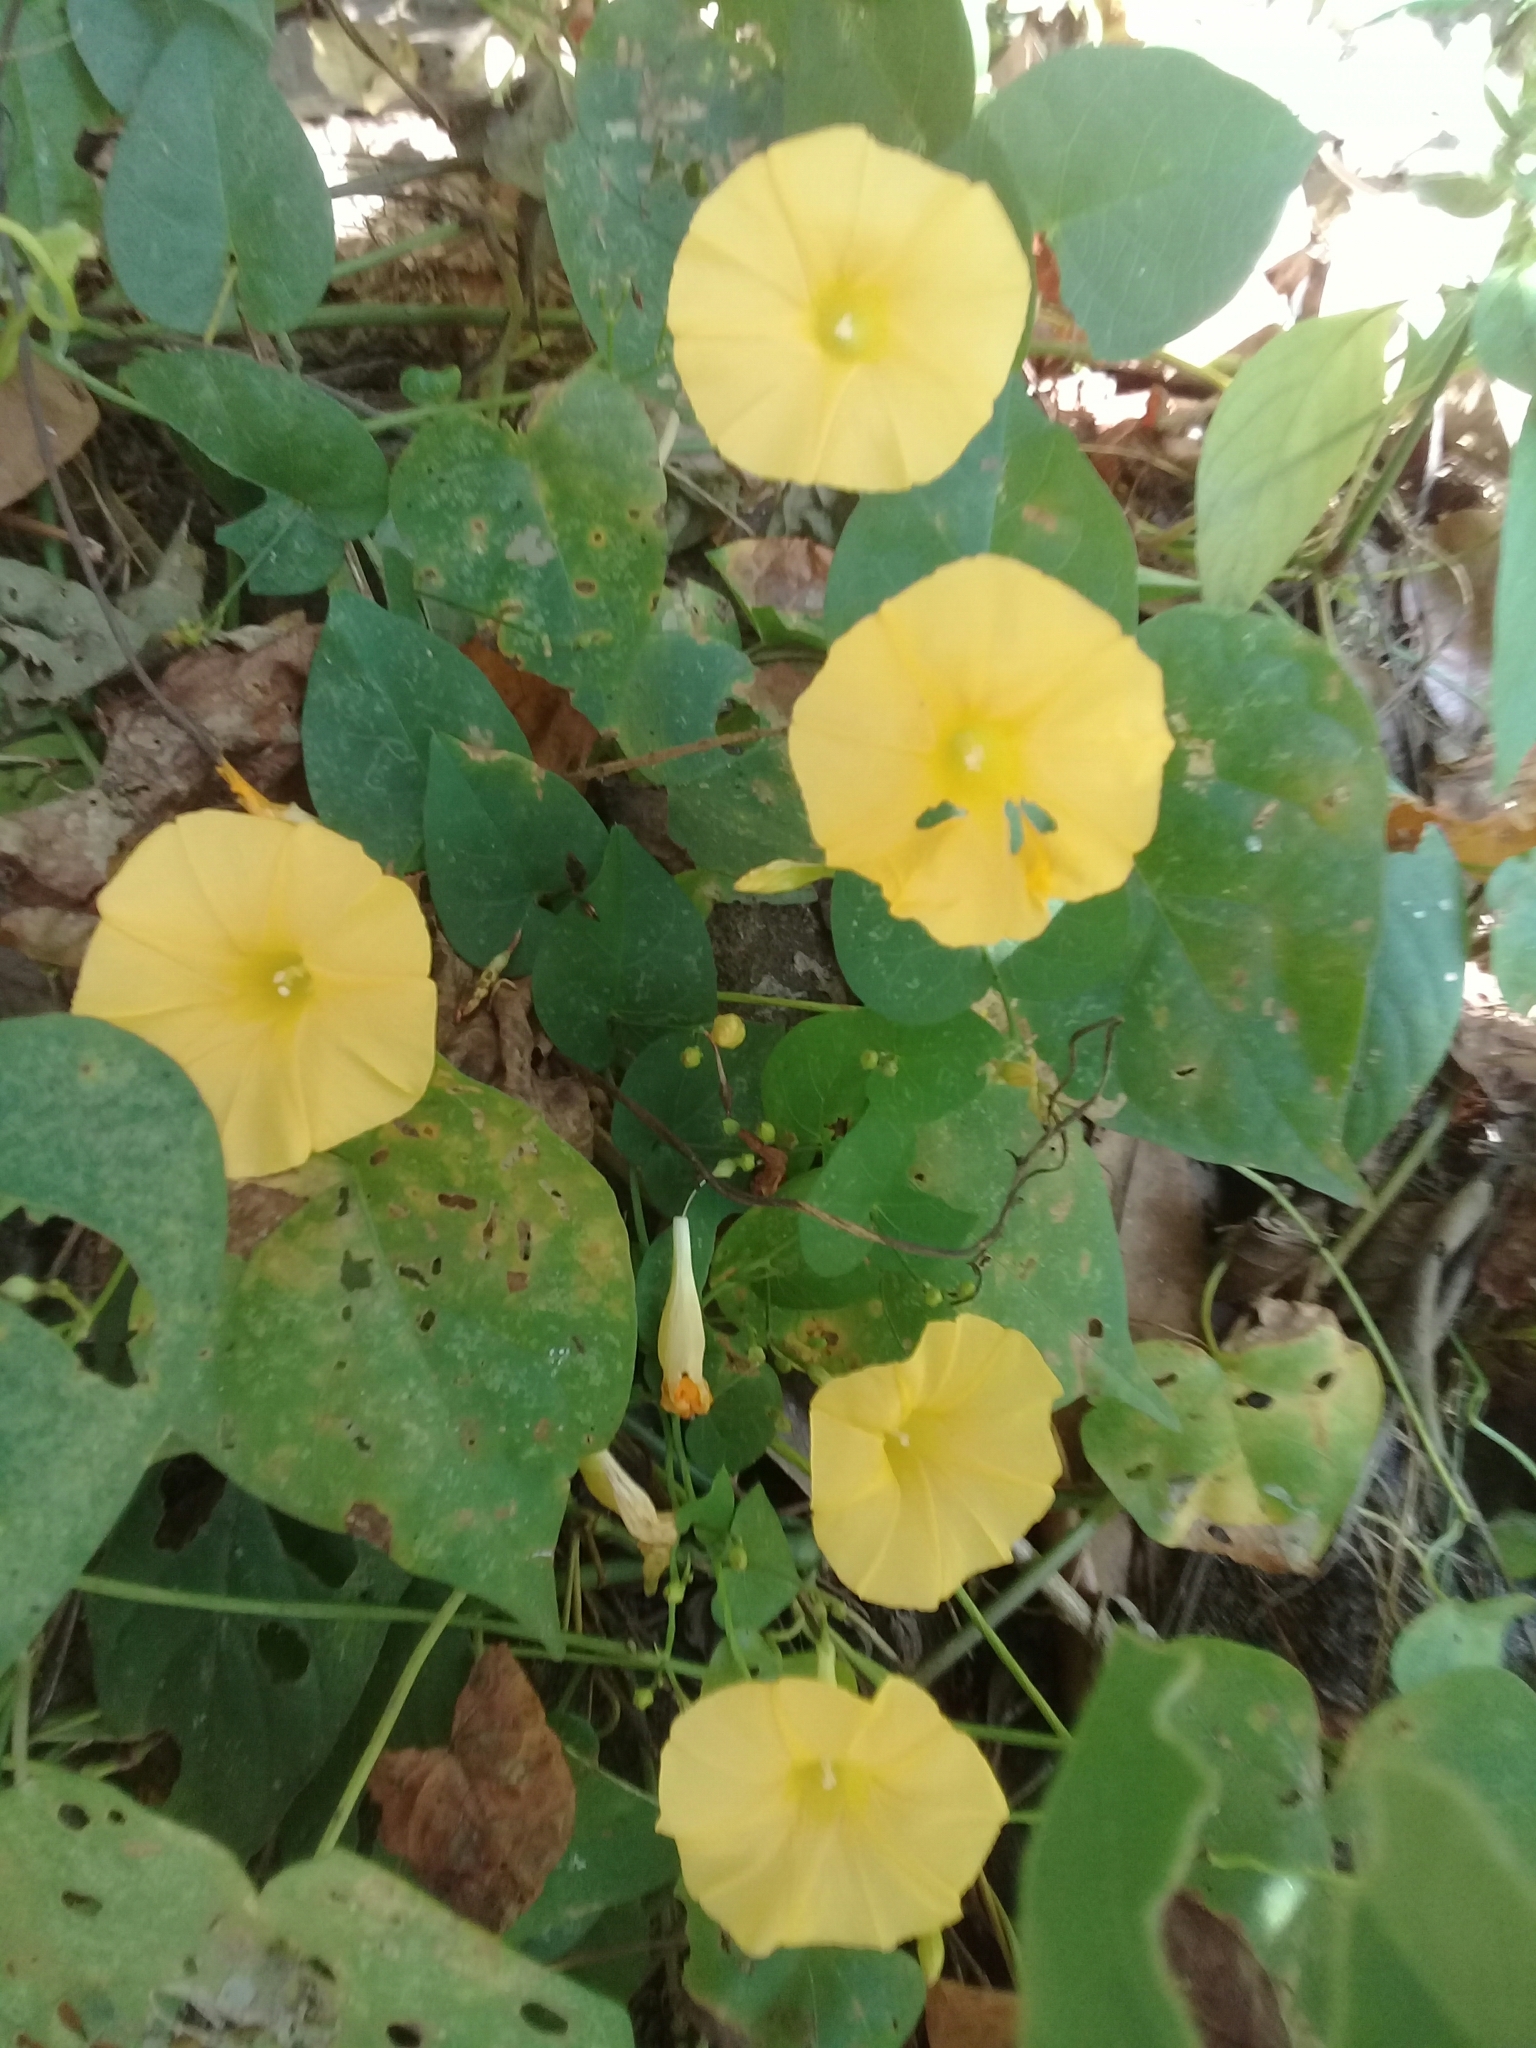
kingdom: Plantae
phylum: Tracheophyta
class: Magnoliopsida
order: Solanales
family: Convolvulaceae
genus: Ipomoea
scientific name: Ipomoea microsepala
